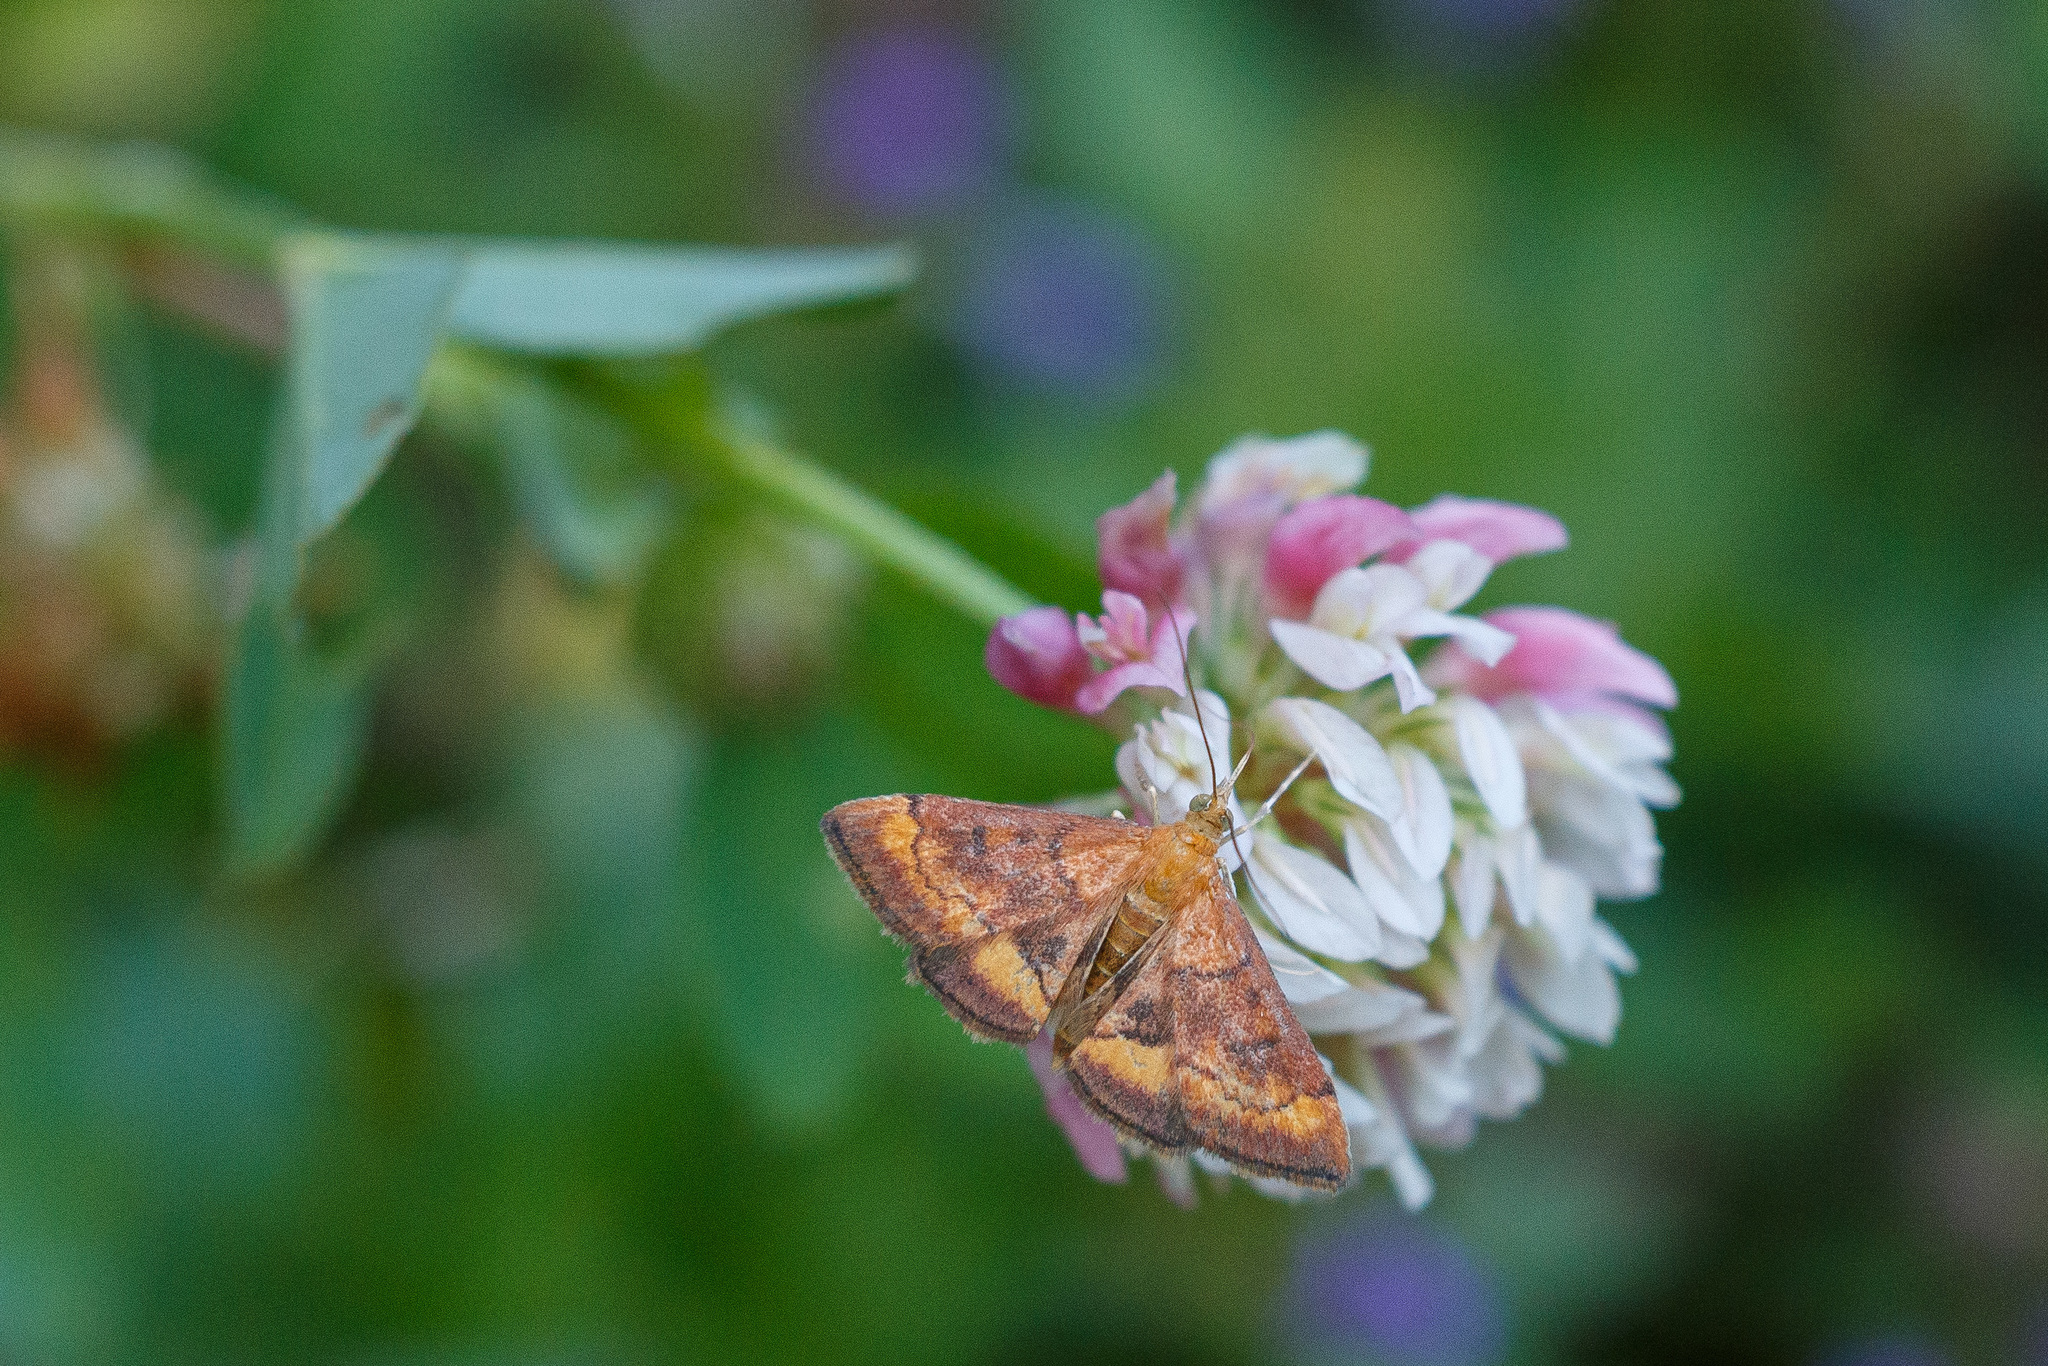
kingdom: Animalia
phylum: Arthropoda
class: Insecta
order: Lepidoptera
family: Crambidae
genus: Pyrausta
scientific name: Pyrausta californicalis
